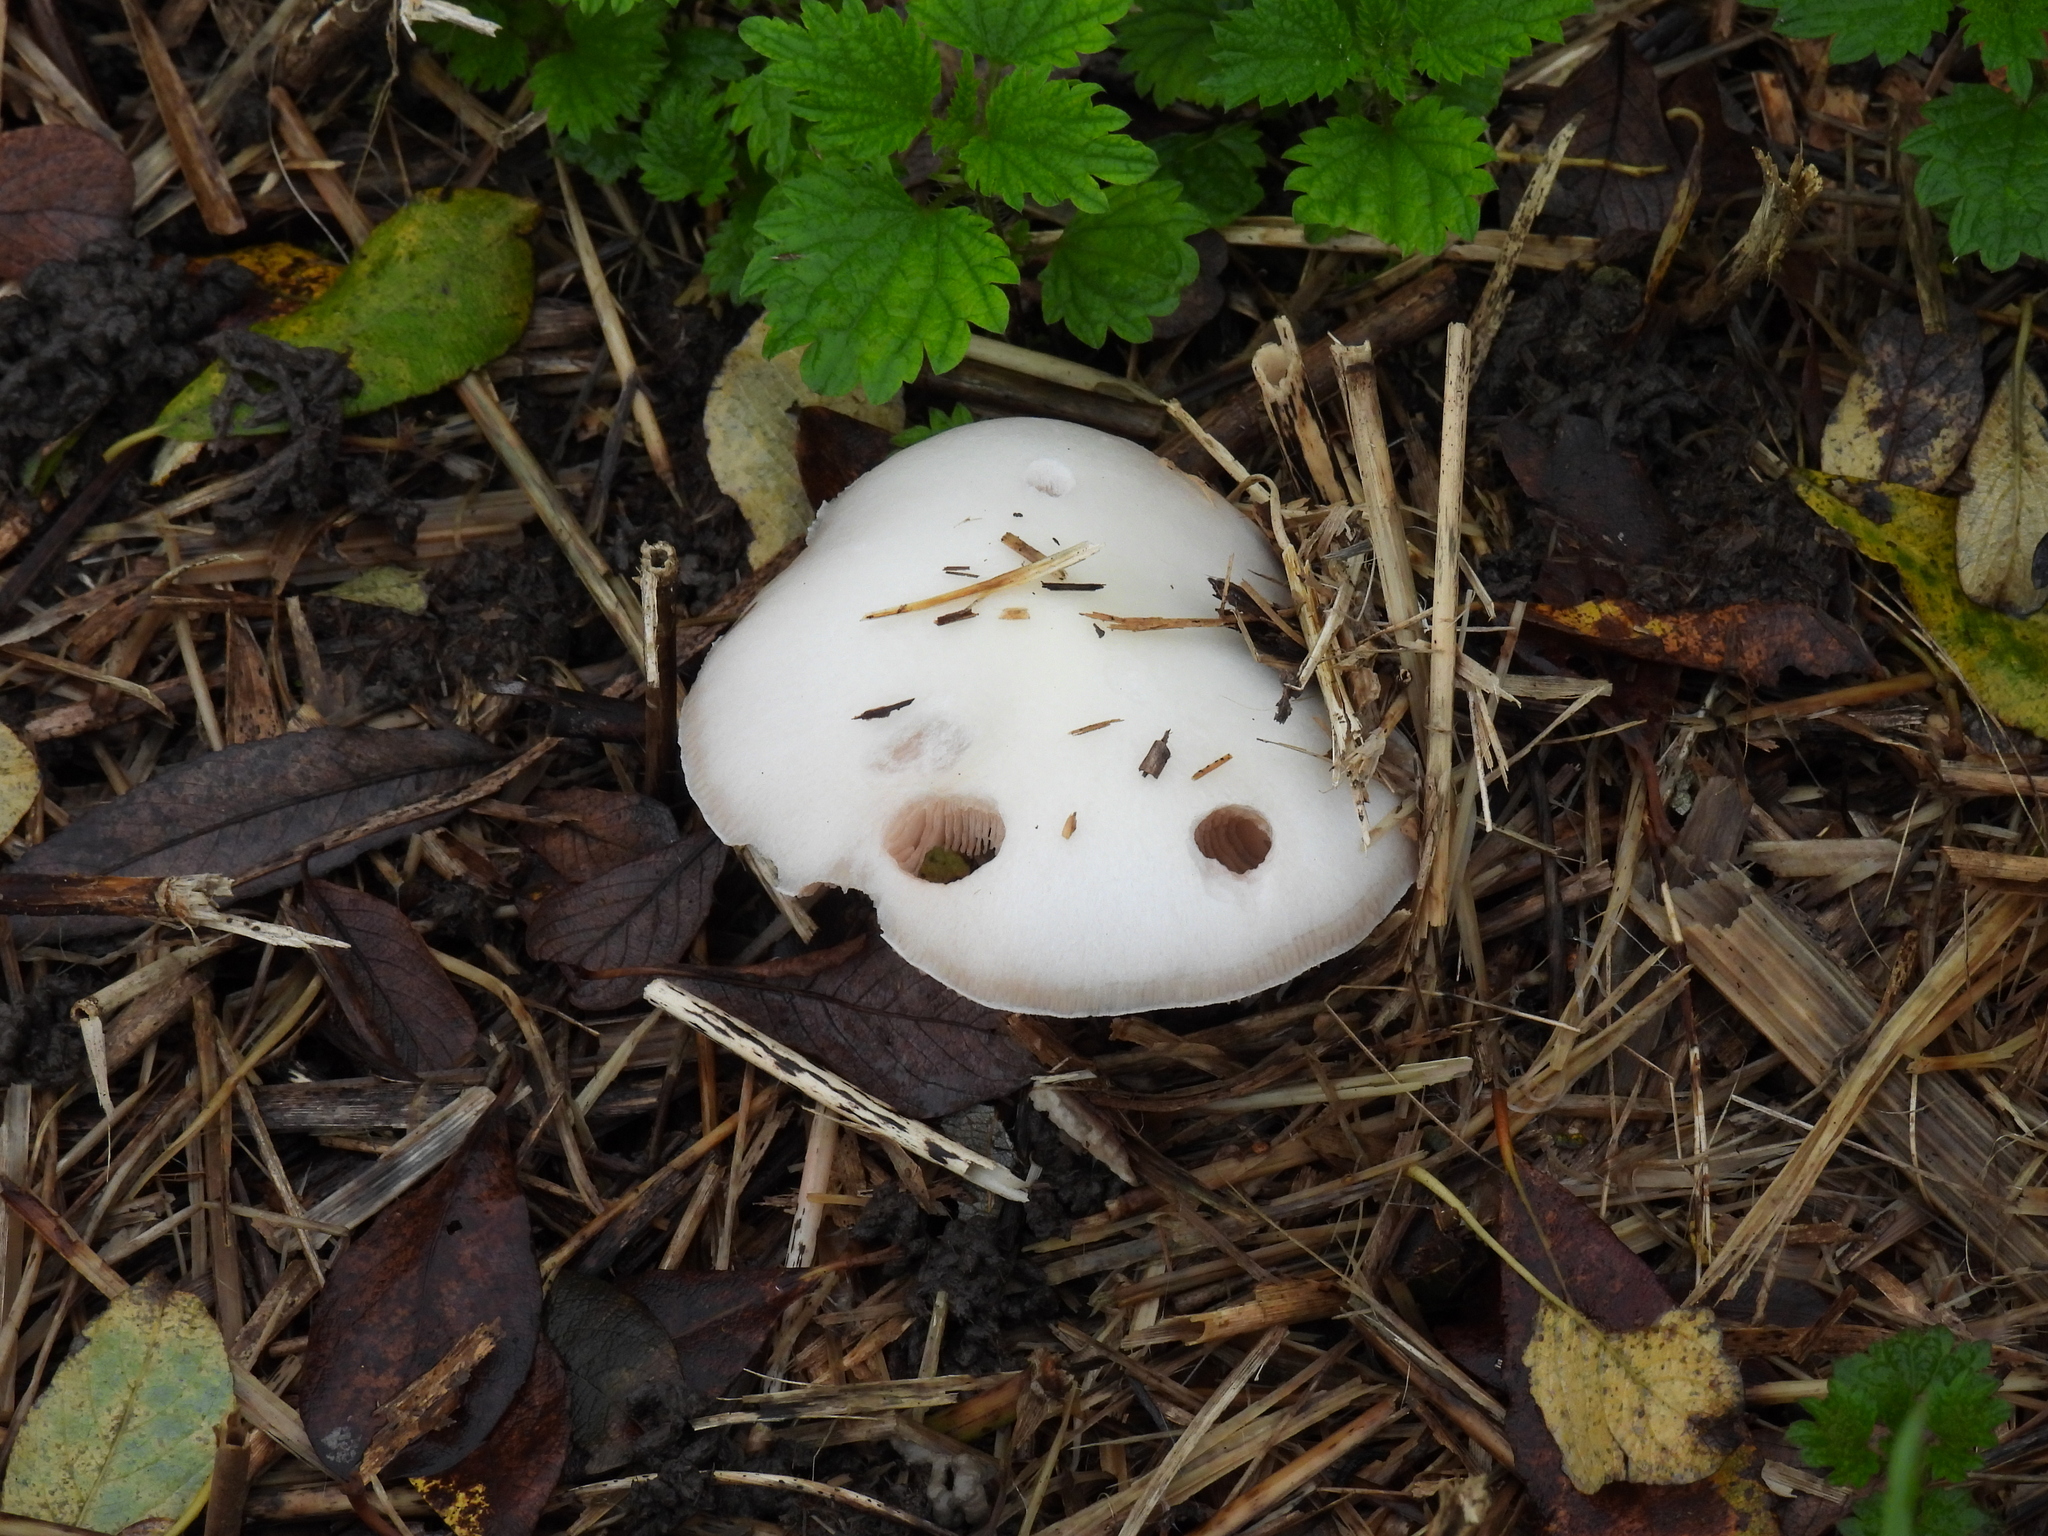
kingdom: Fungi
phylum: Basidiomycota
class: Agaricomycetes
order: Agaricales
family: Pluteaceae
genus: Volvopluteus
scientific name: Volvopluteus gloiocephalus
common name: Stubble rosegill
